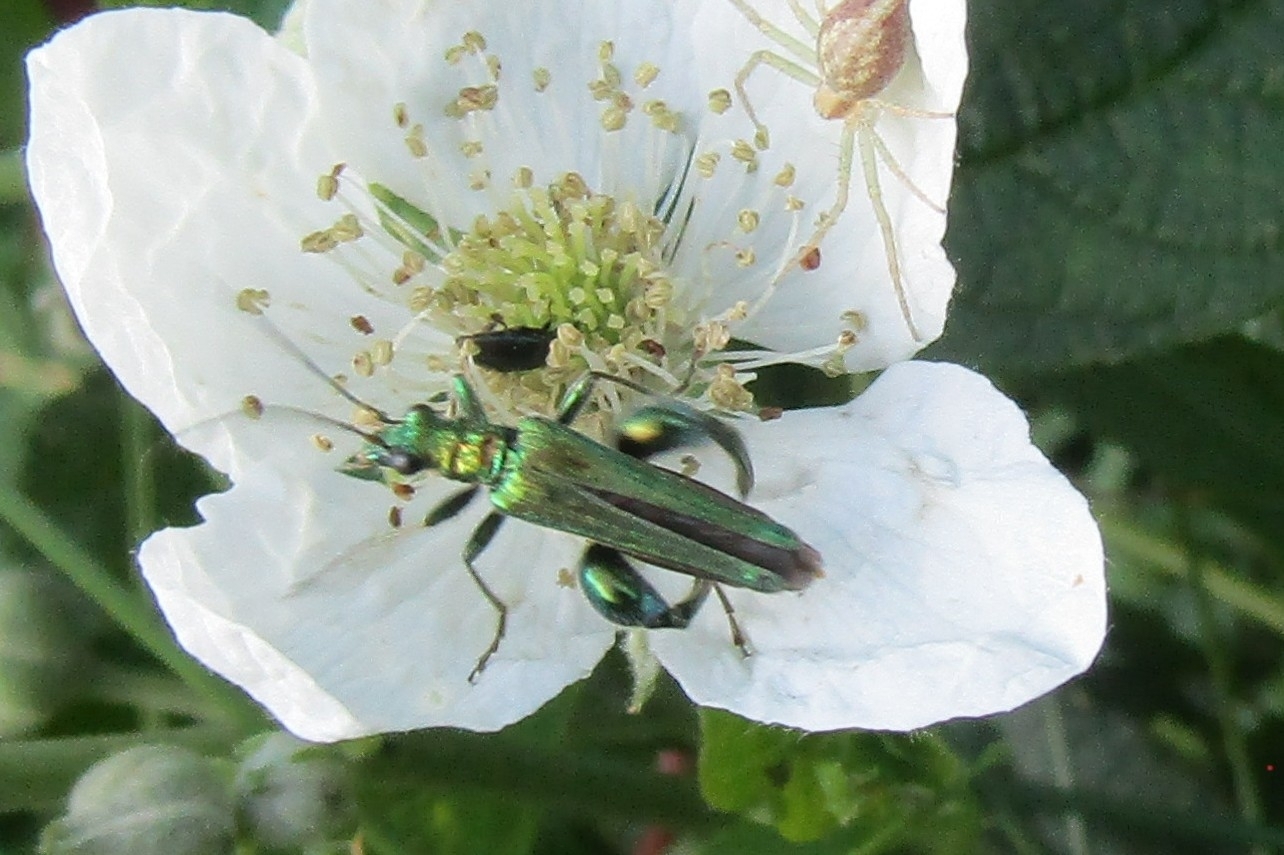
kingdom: Animalia
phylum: Arthropoda
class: Insecta
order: Coleoptera
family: Oedemeridae
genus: Oedemera
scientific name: Oedemera nobilis
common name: Swollen-thighed beetle
